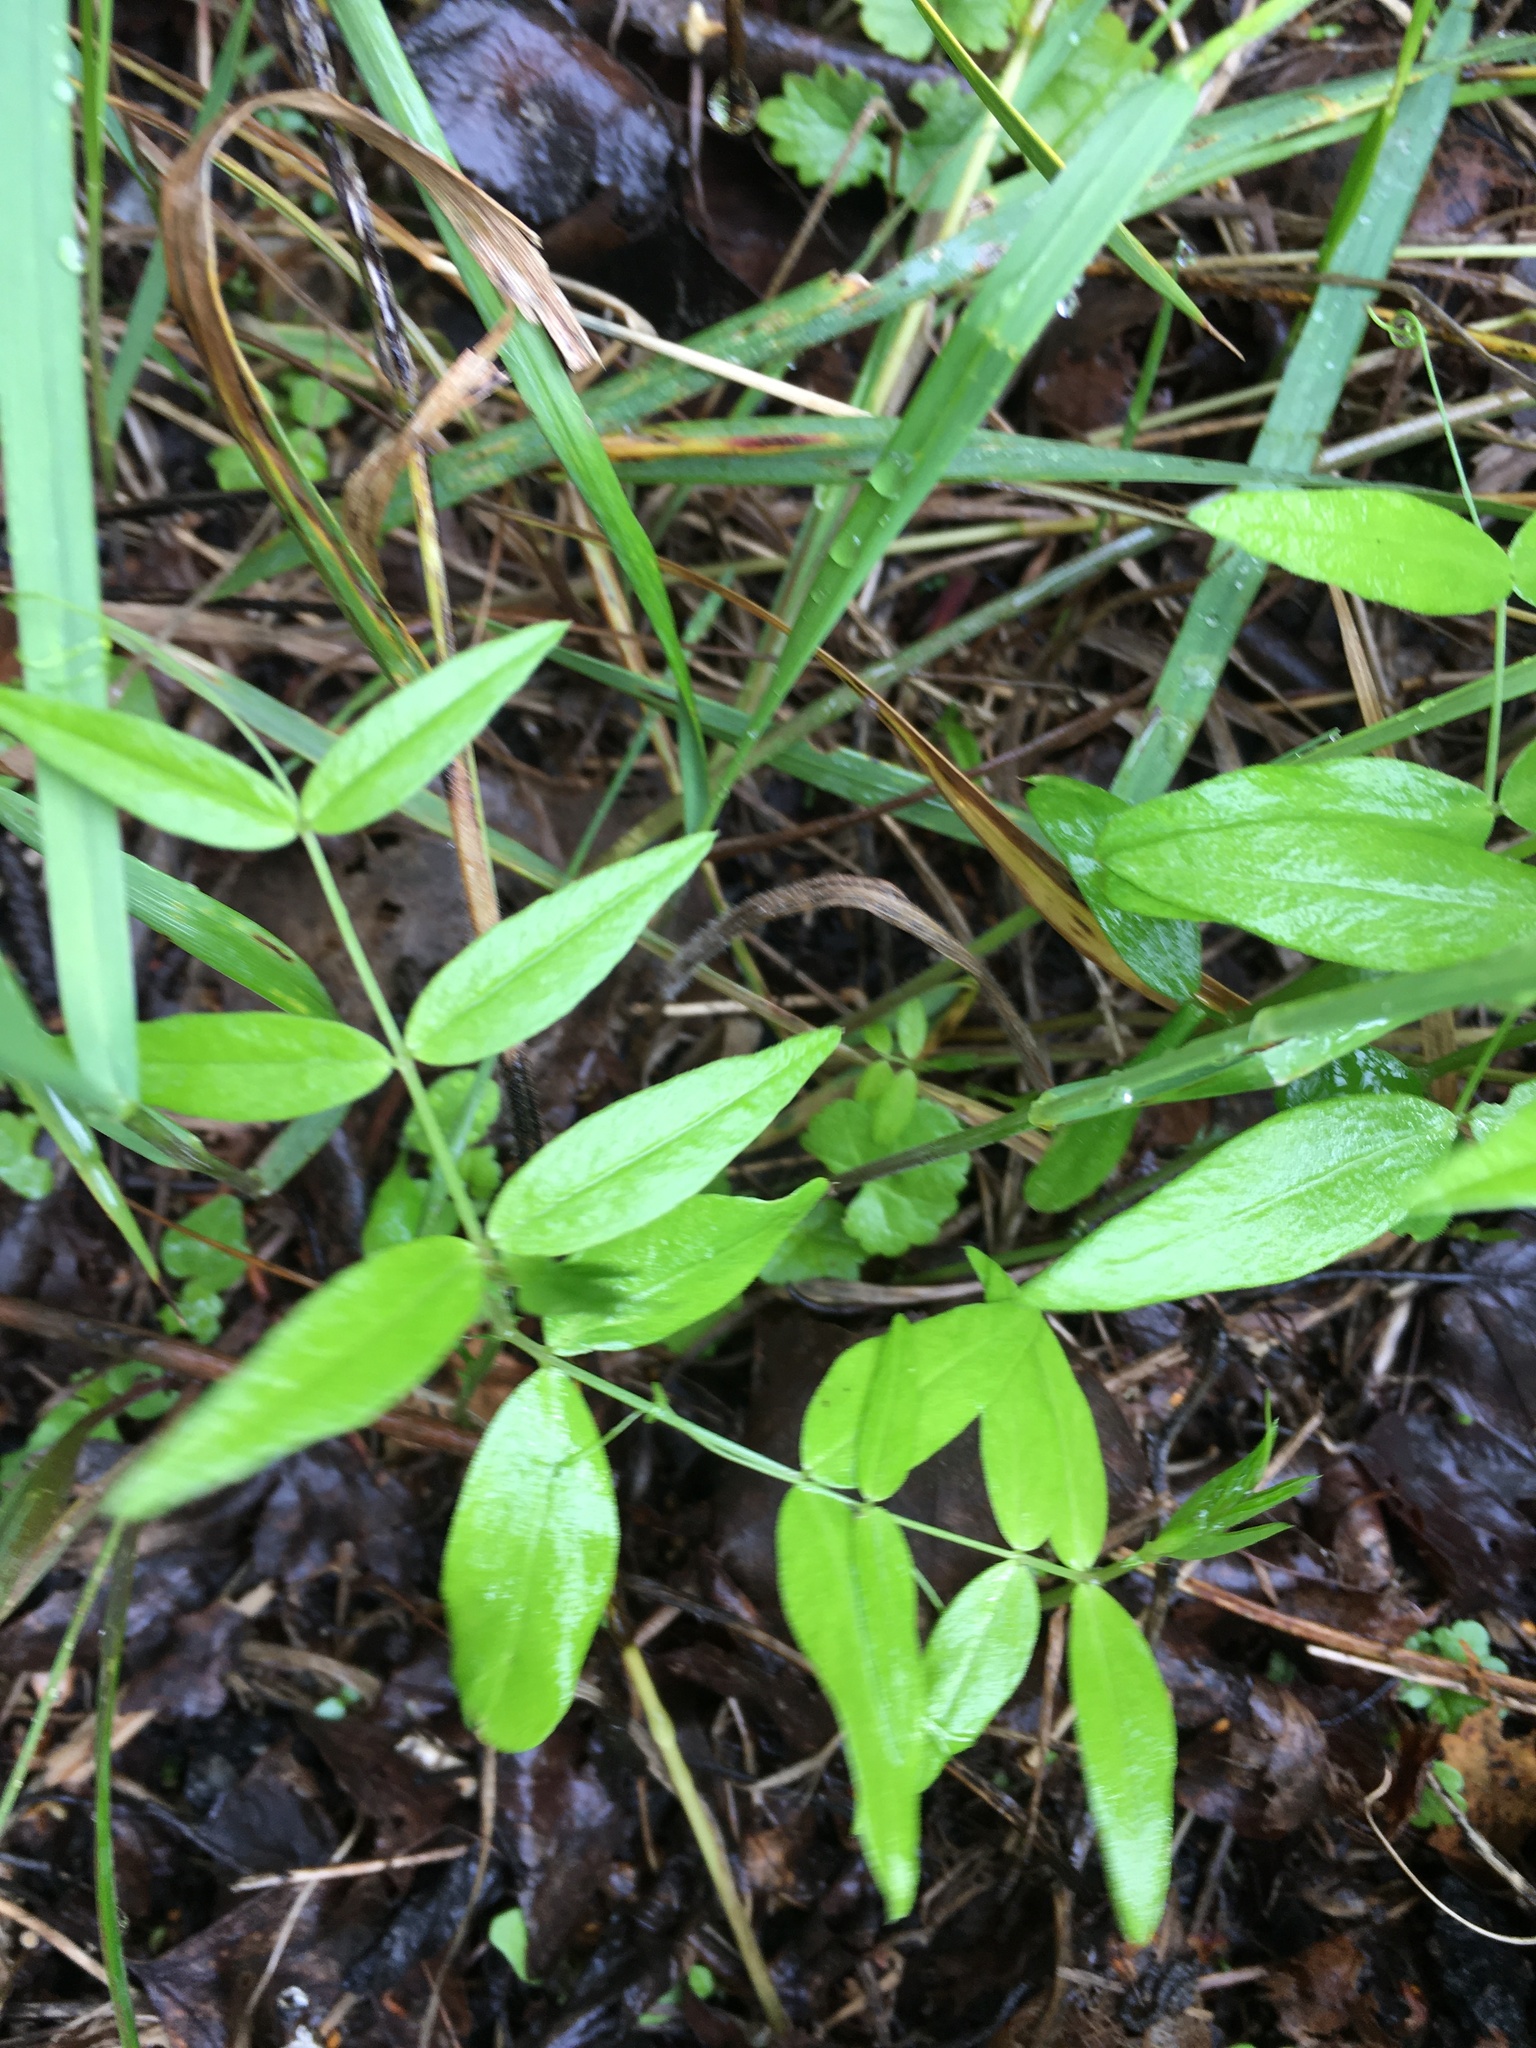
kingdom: Plantae
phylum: Tracheophyta
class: Magnoliopsida
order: Fabales
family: Fabaceae
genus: Vicia
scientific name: Vicia sepium
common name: Bush vetch
